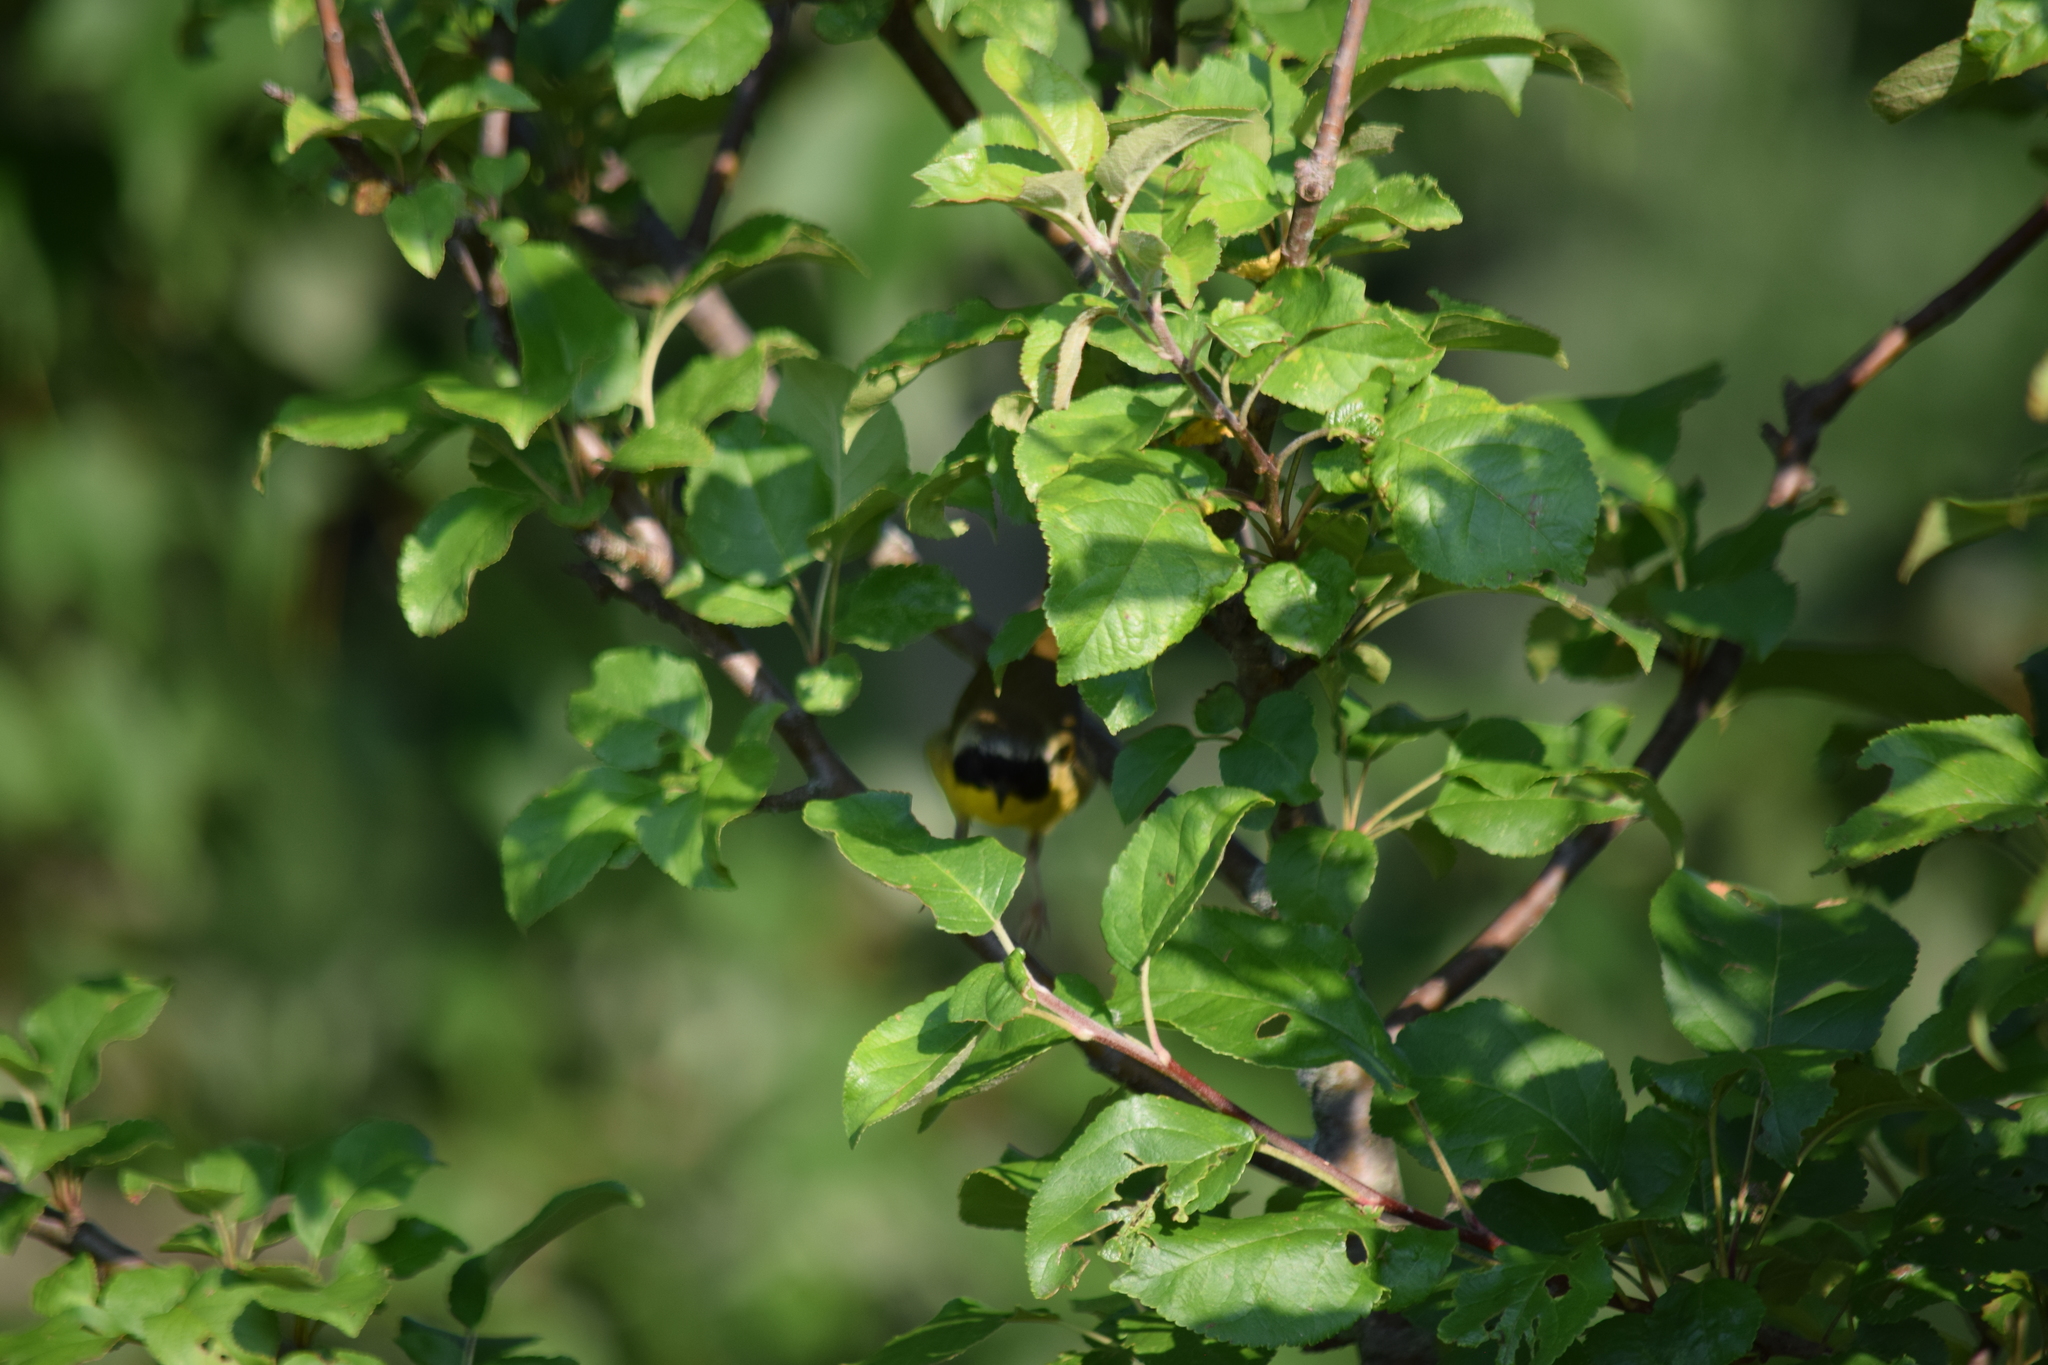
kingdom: Animalia
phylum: Chordata
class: Aves
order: Passeriformes
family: Parulidae
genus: Geothlypis
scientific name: Geothlypis trichas
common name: Common yellowthroat
